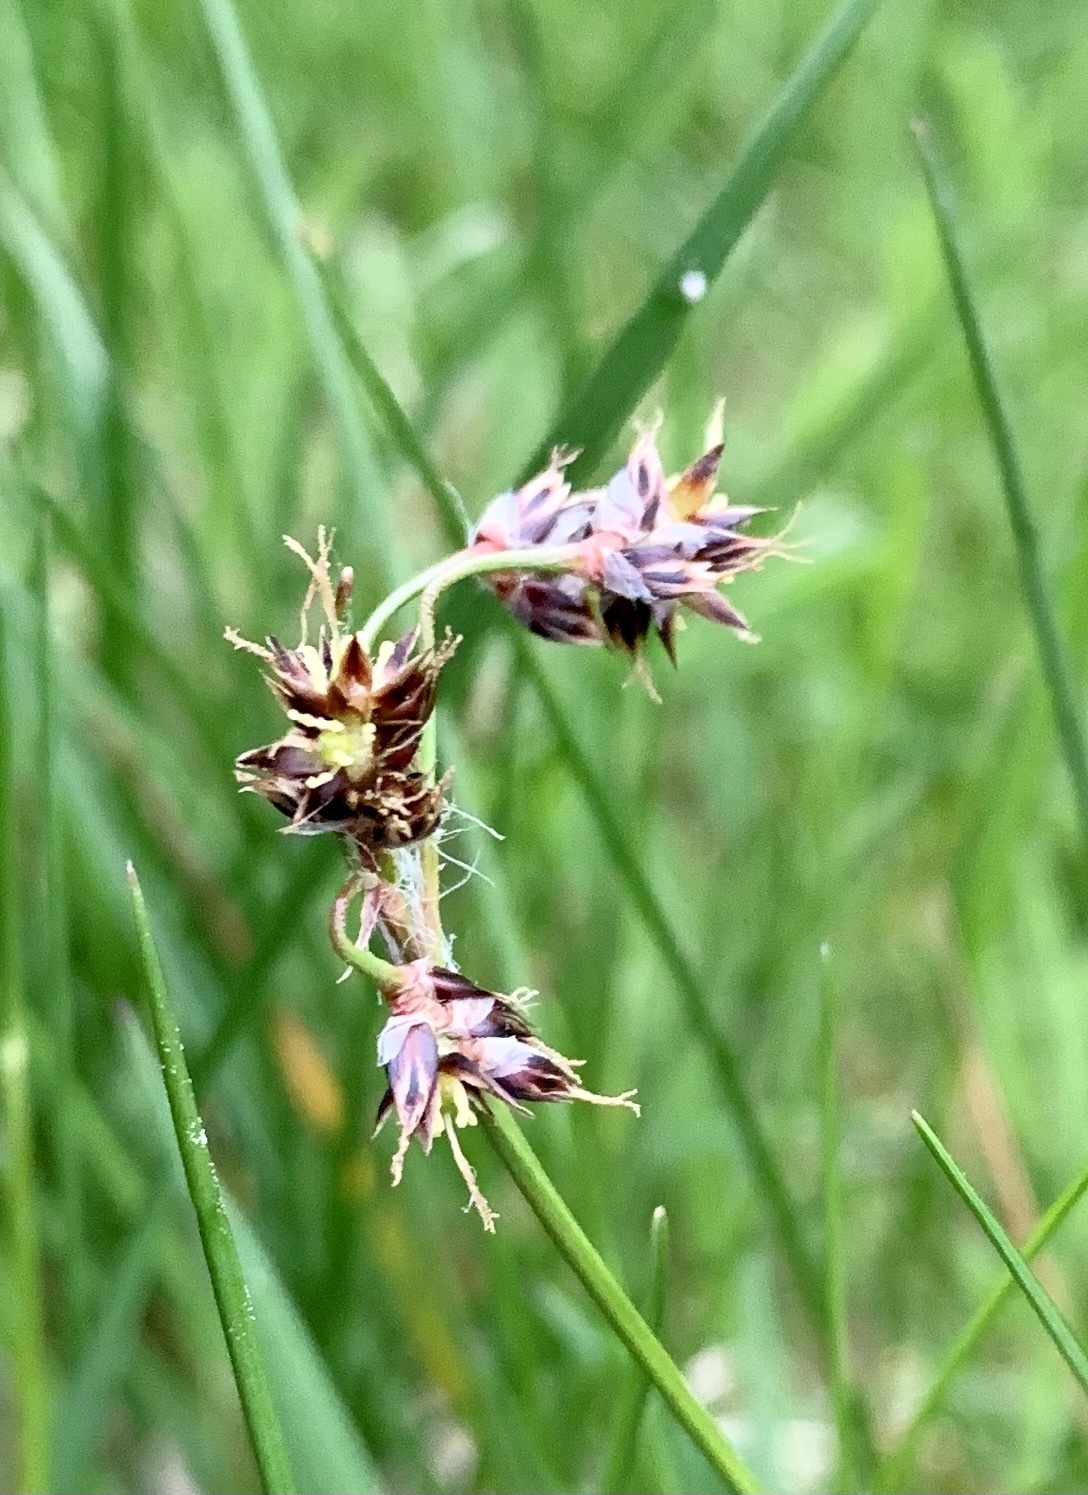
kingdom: Plantae
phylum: Tracheophyta
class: Liliopsida
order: Poales
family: Juncaceae
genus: Luzula
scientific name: Luzula campestris
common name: Field wood-rush
